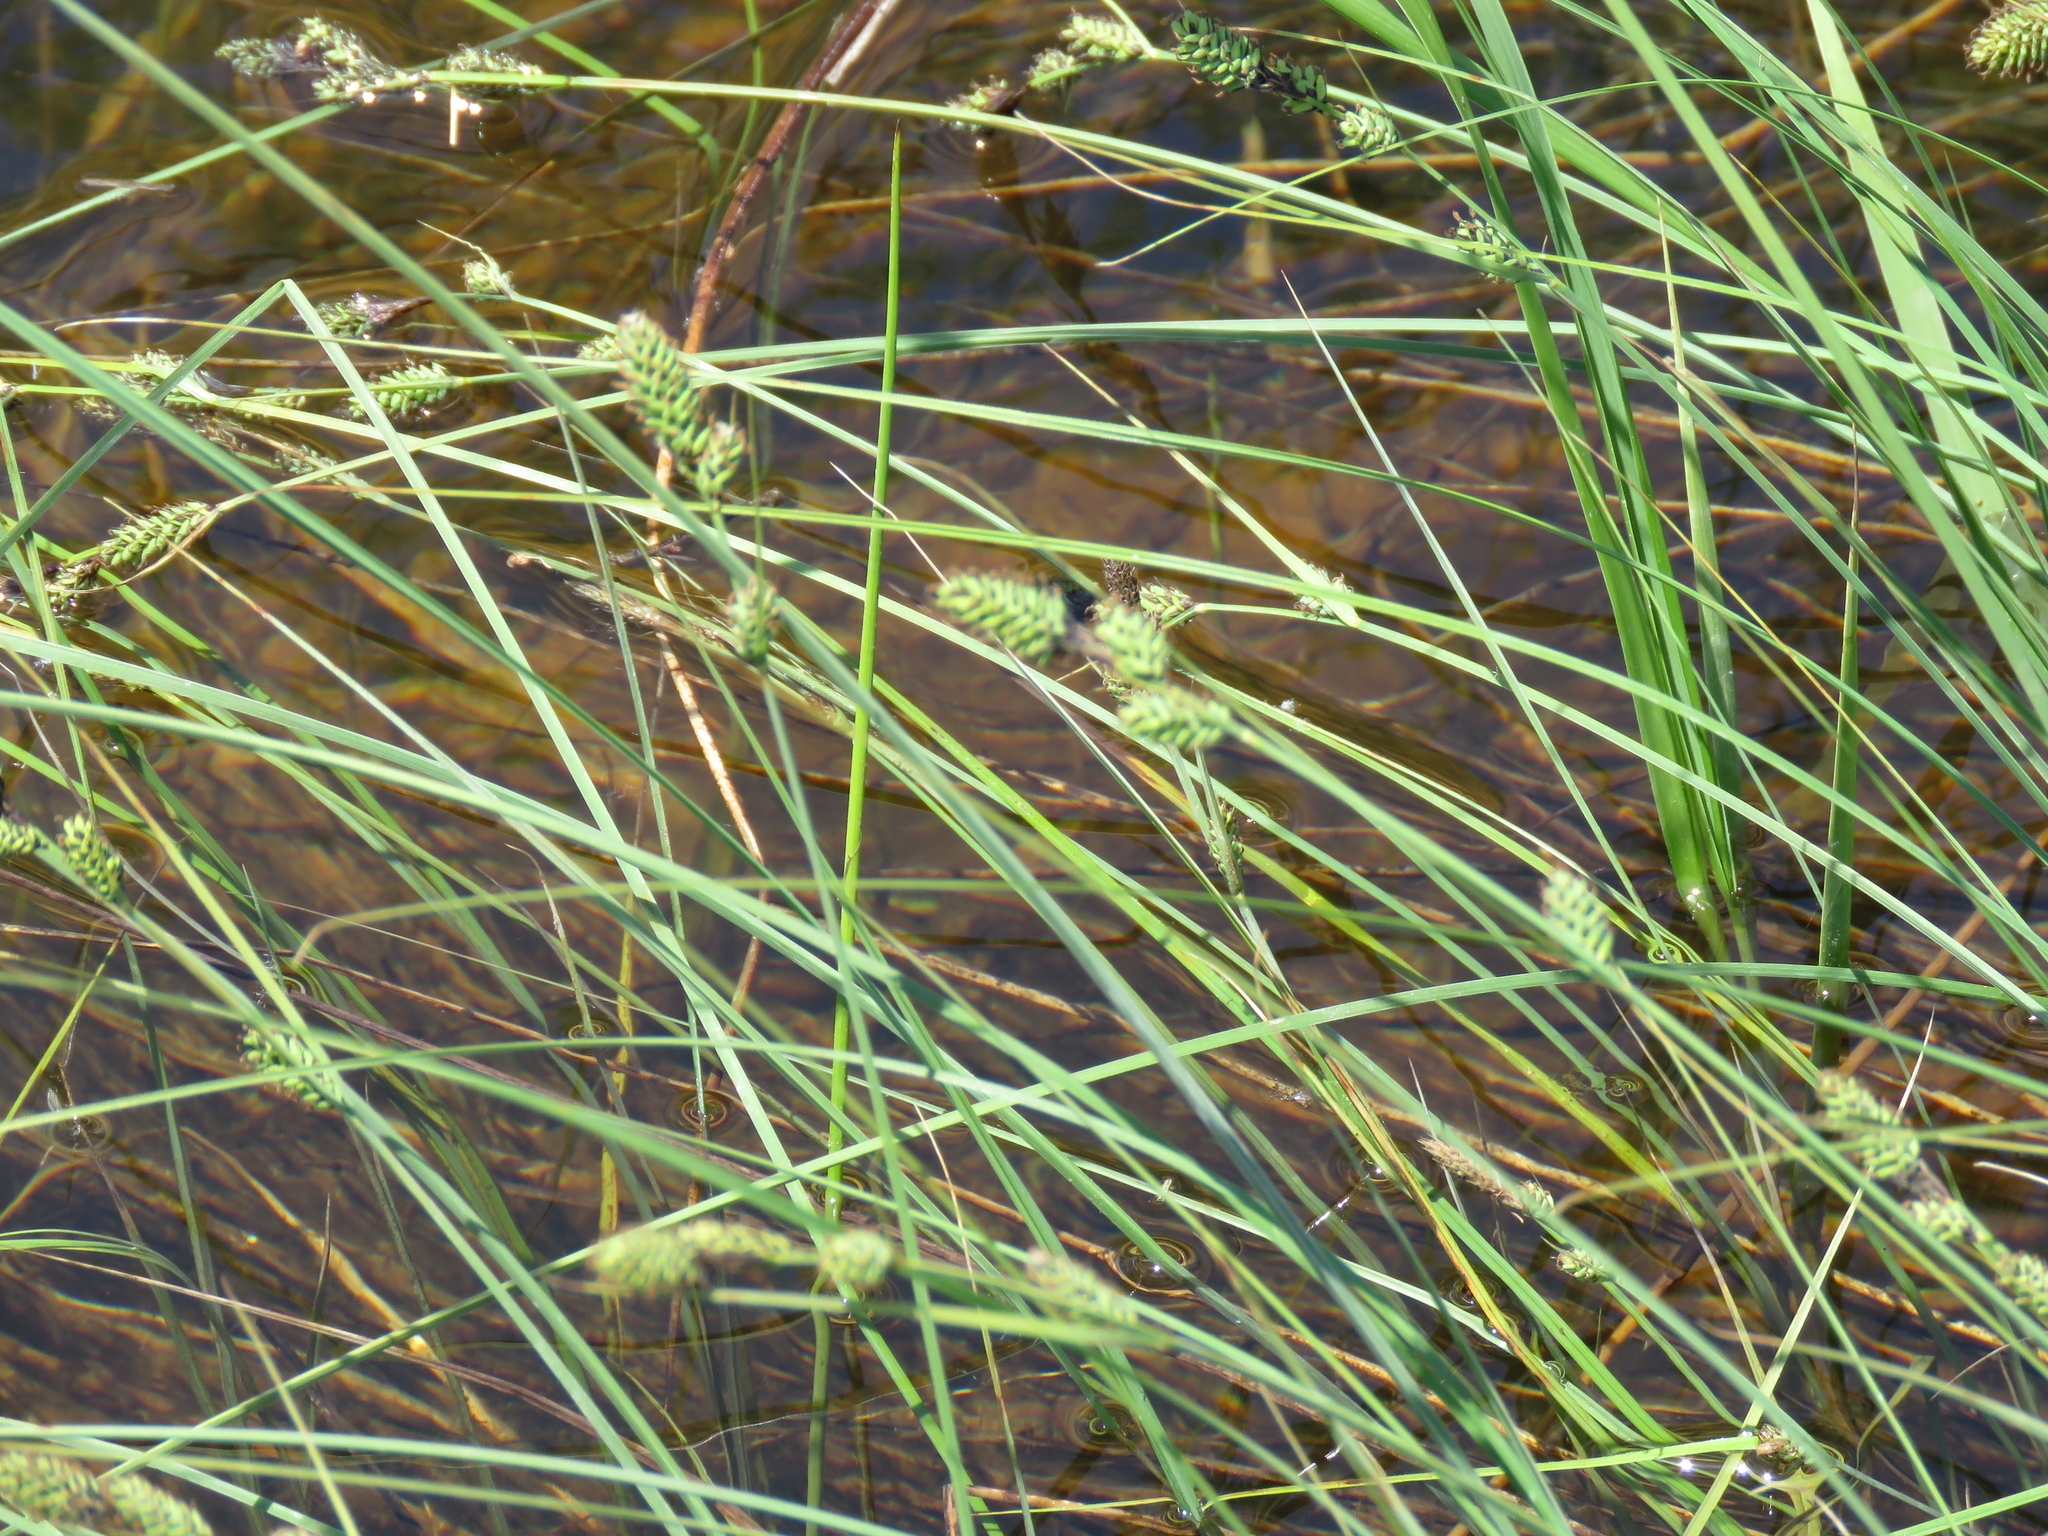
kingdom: Plantae
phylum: Tracheophyta
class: Liliopsida
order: Poales
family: Cyperaceae
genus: Carex
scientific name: Carex buxbaumii
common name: Club sedge
